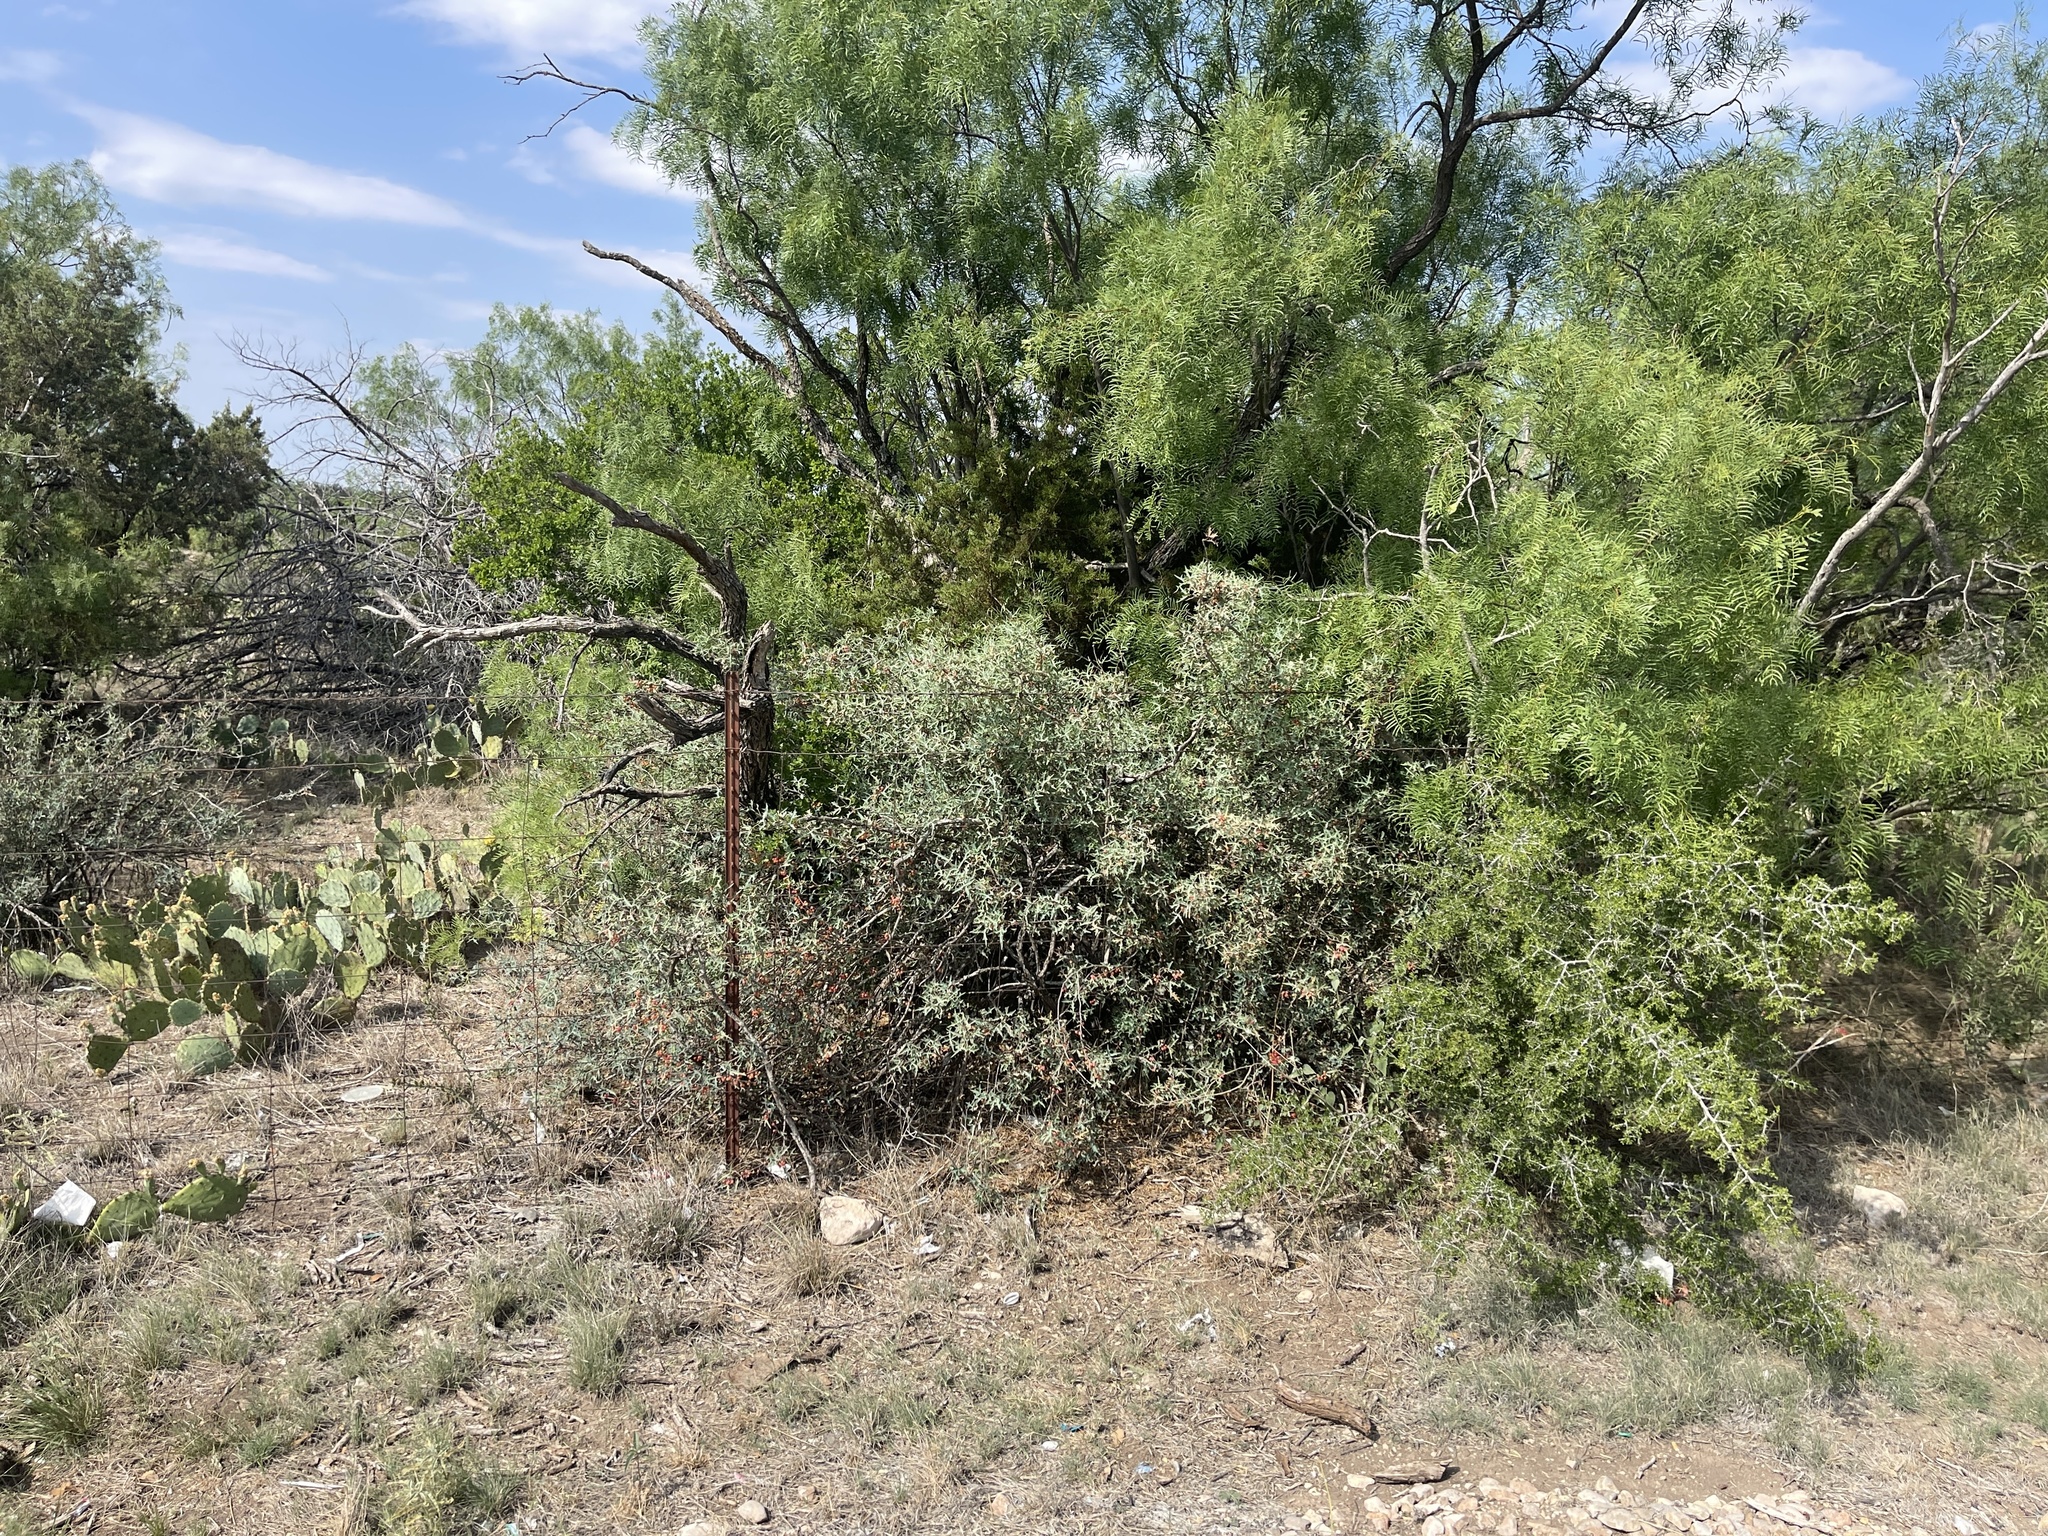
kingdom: Plantae
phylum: Tracheophyta
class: Magnoliopsida
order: Ranunculales
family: Berberidaceae
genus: Alloberberis
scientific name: Alloberberis trifoliolata
